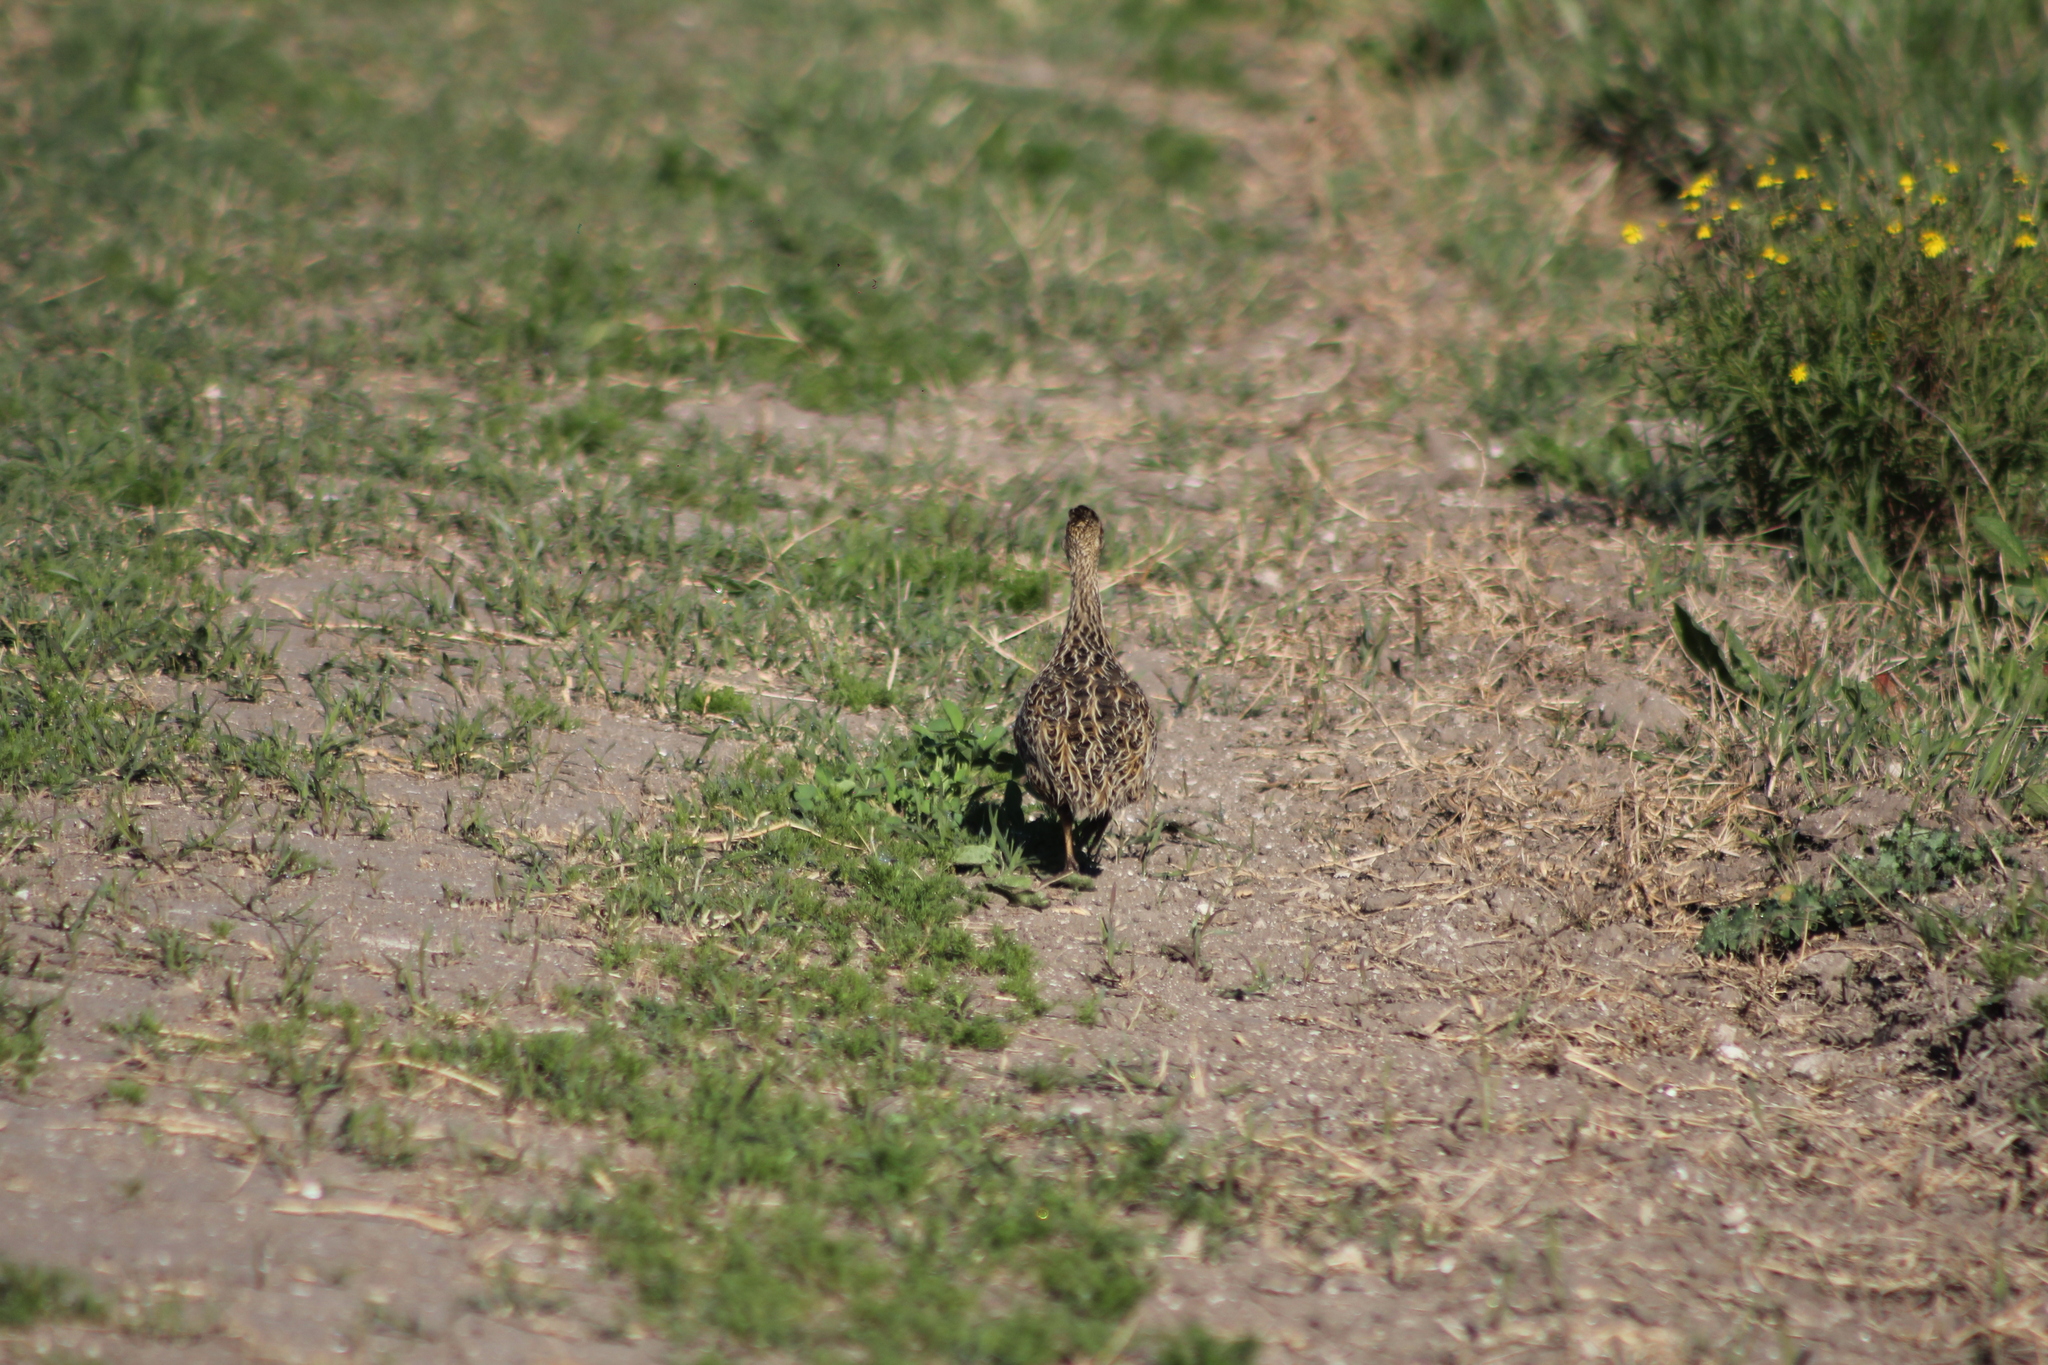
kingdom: Animalia
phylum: Chordata
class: Aves
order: Tinamiformes
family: Tinamidae
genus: Nothura
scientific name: Nothura maculosa
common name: Spotted nothura
